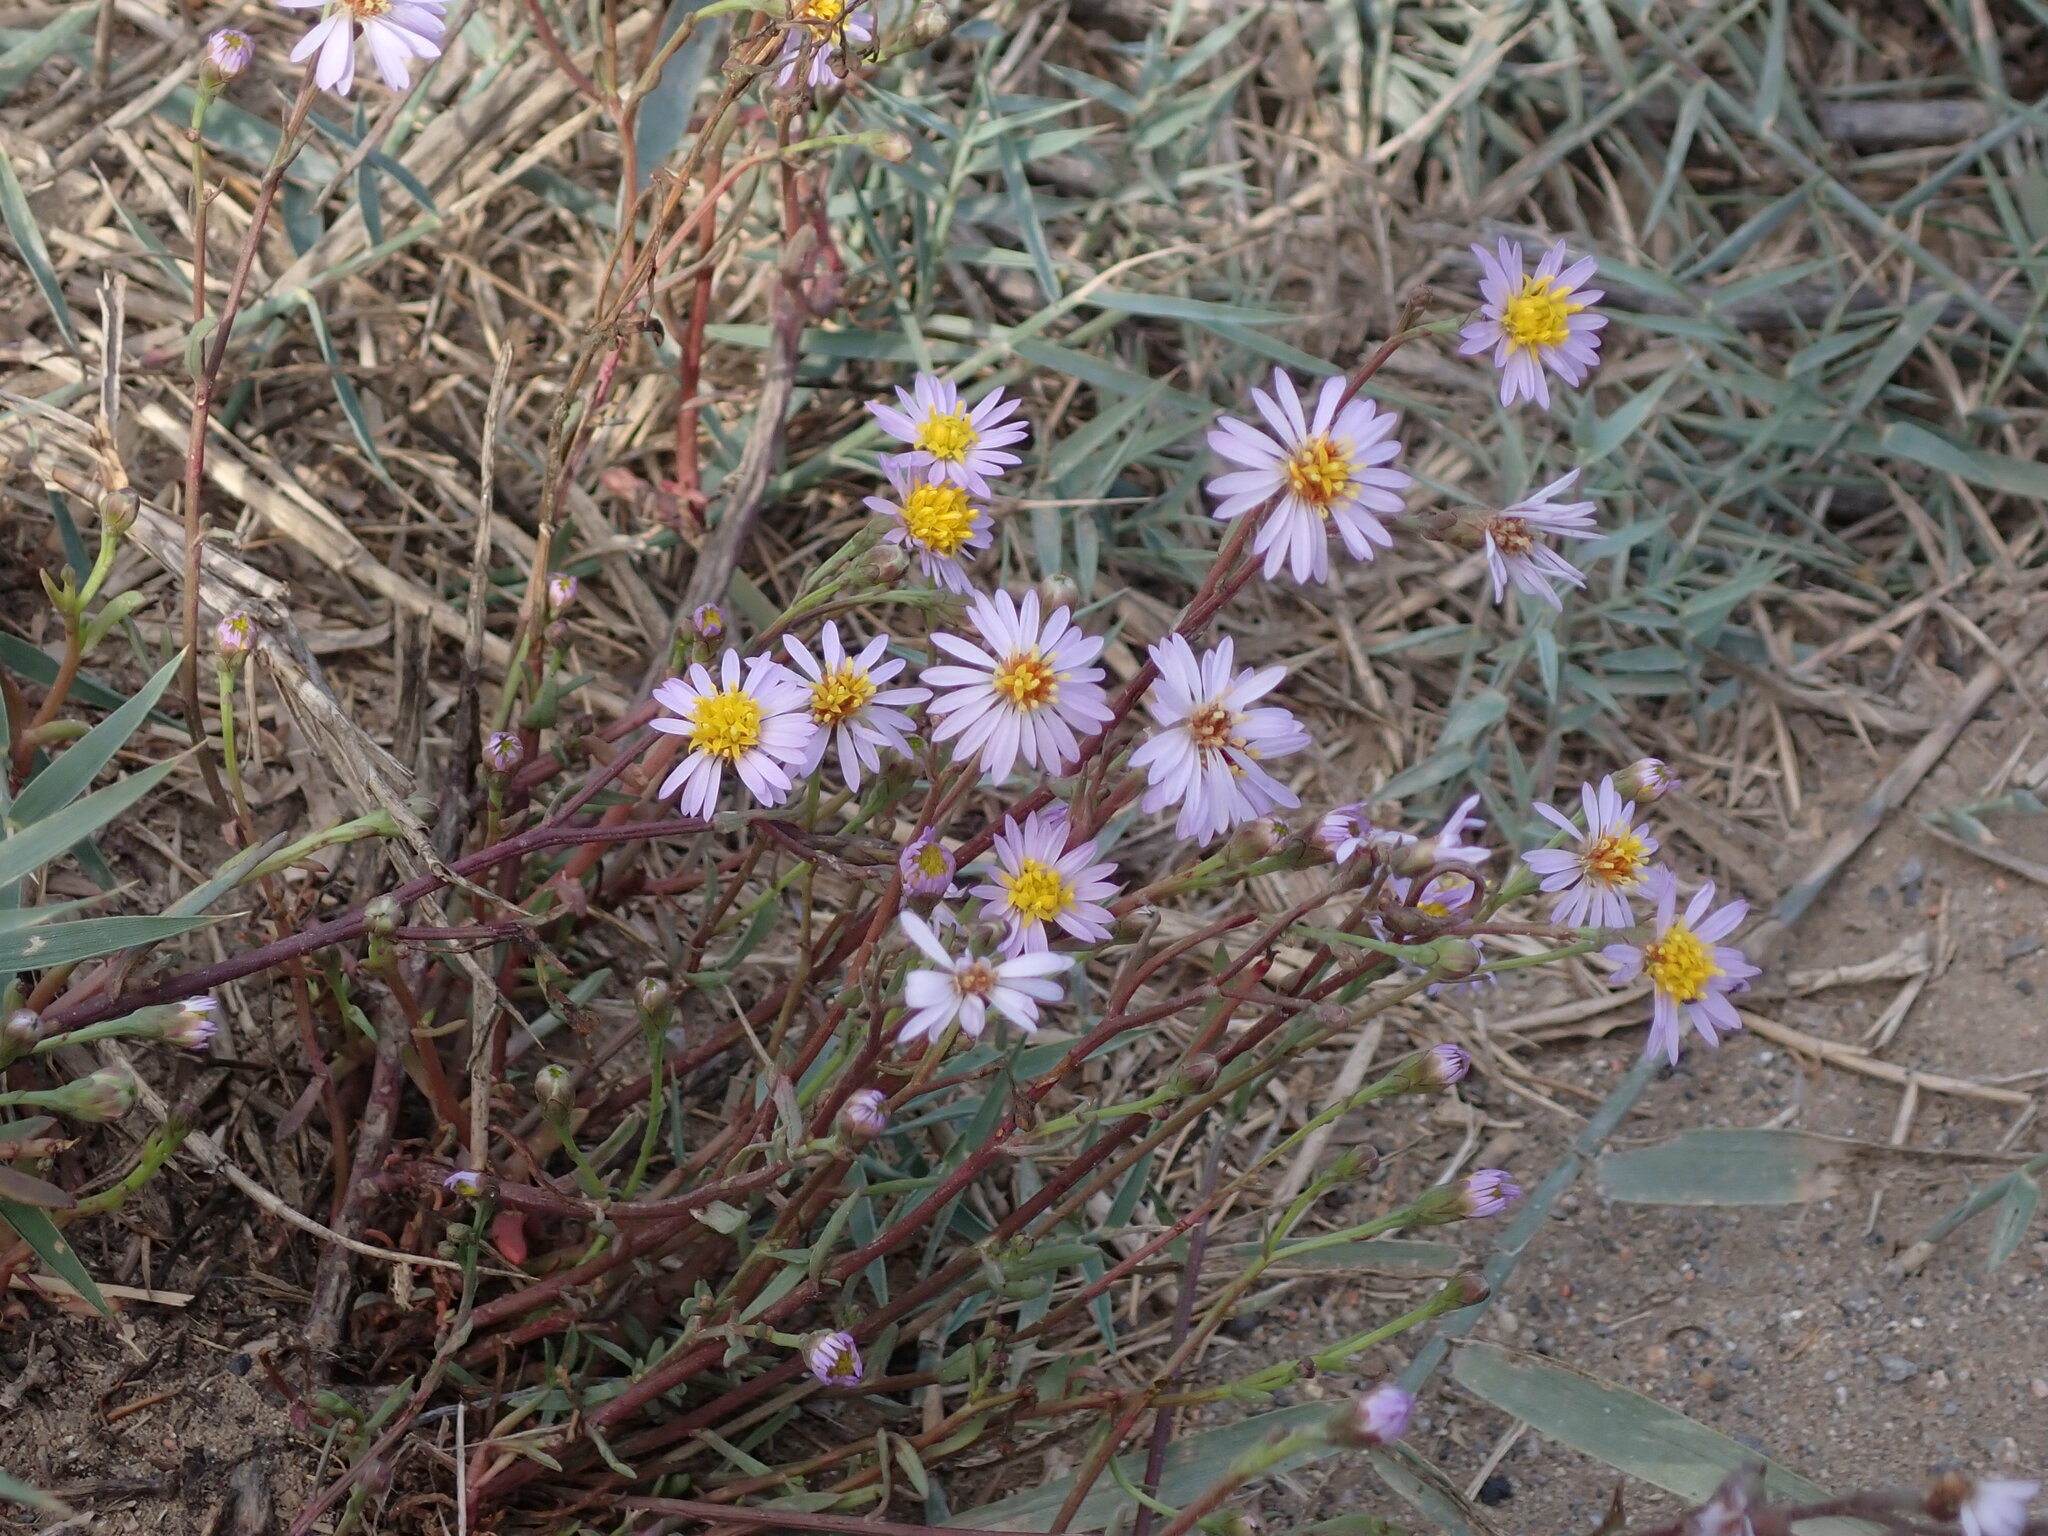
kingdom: Plantae
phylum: Tracheophyta
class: Magnoliopsida
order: Asterales
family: Asteraceae
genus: Tripolium
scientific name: Tripolium pannonicum
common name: Sea aster
